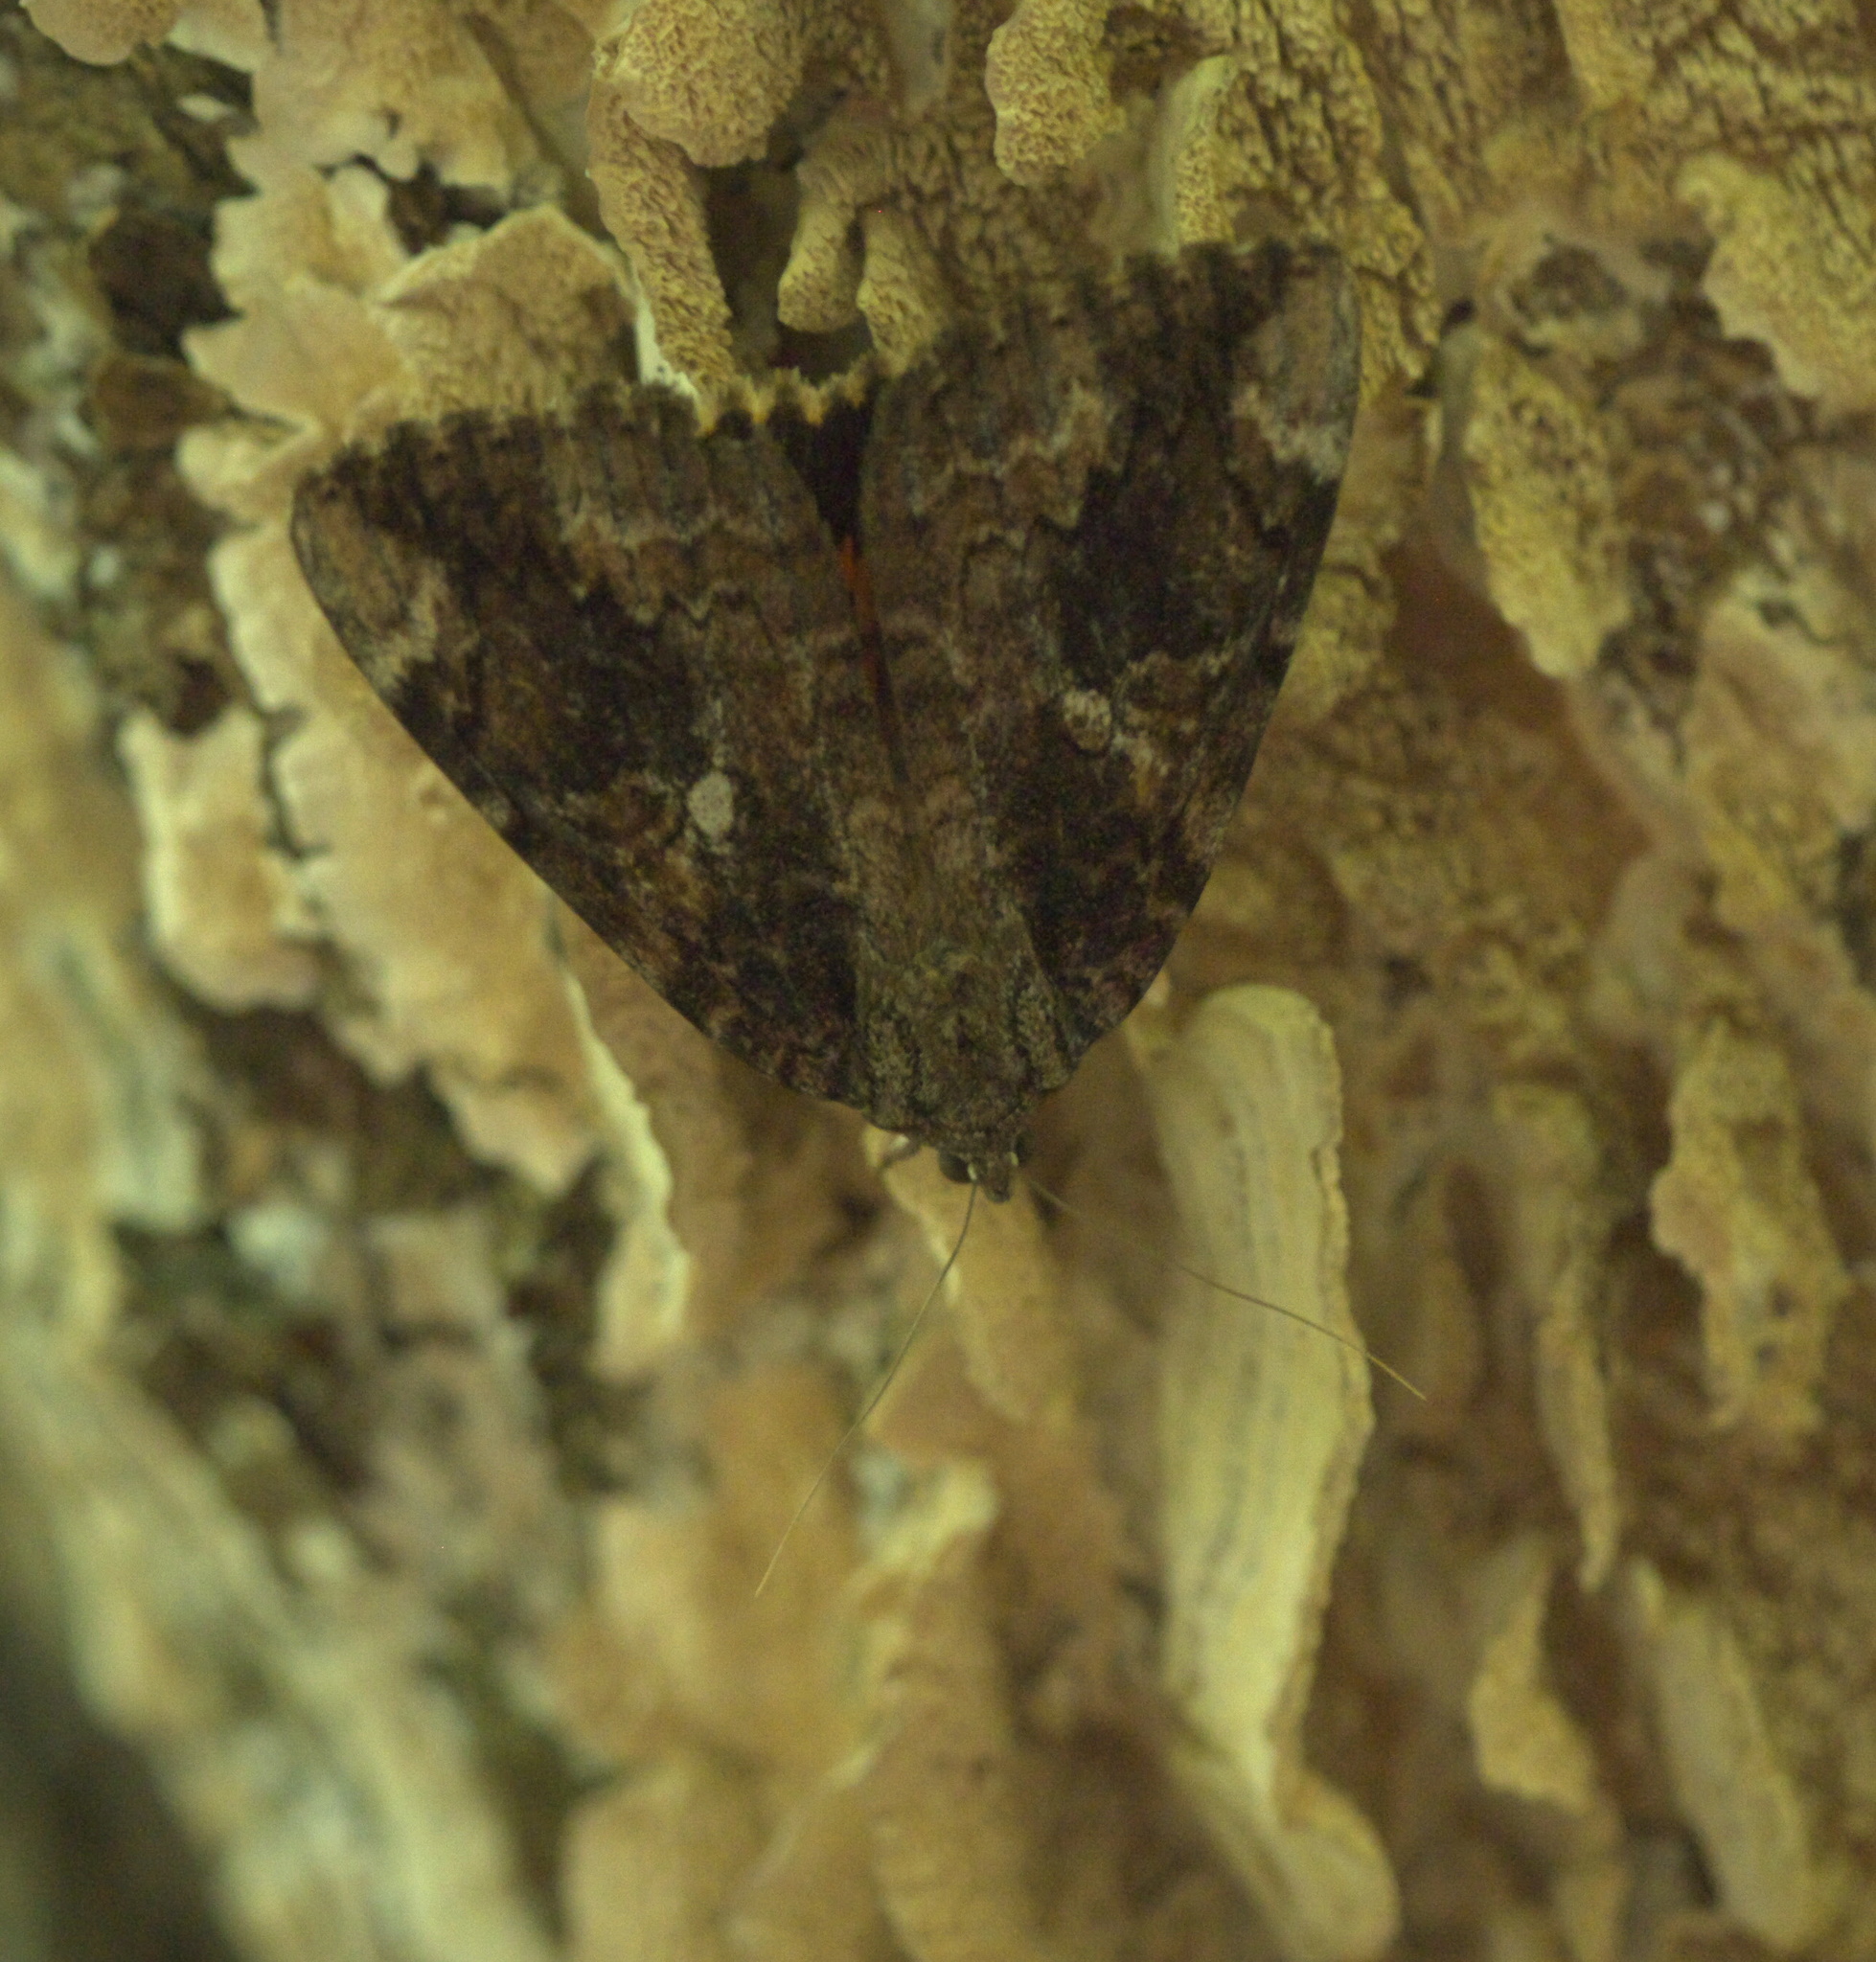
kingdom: Animalia
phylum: Arthropoda
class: Insecta
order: Lepidoptera
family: Erebidae
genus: Catocala
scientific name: Catocala innubens
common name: Betrothed underwing
